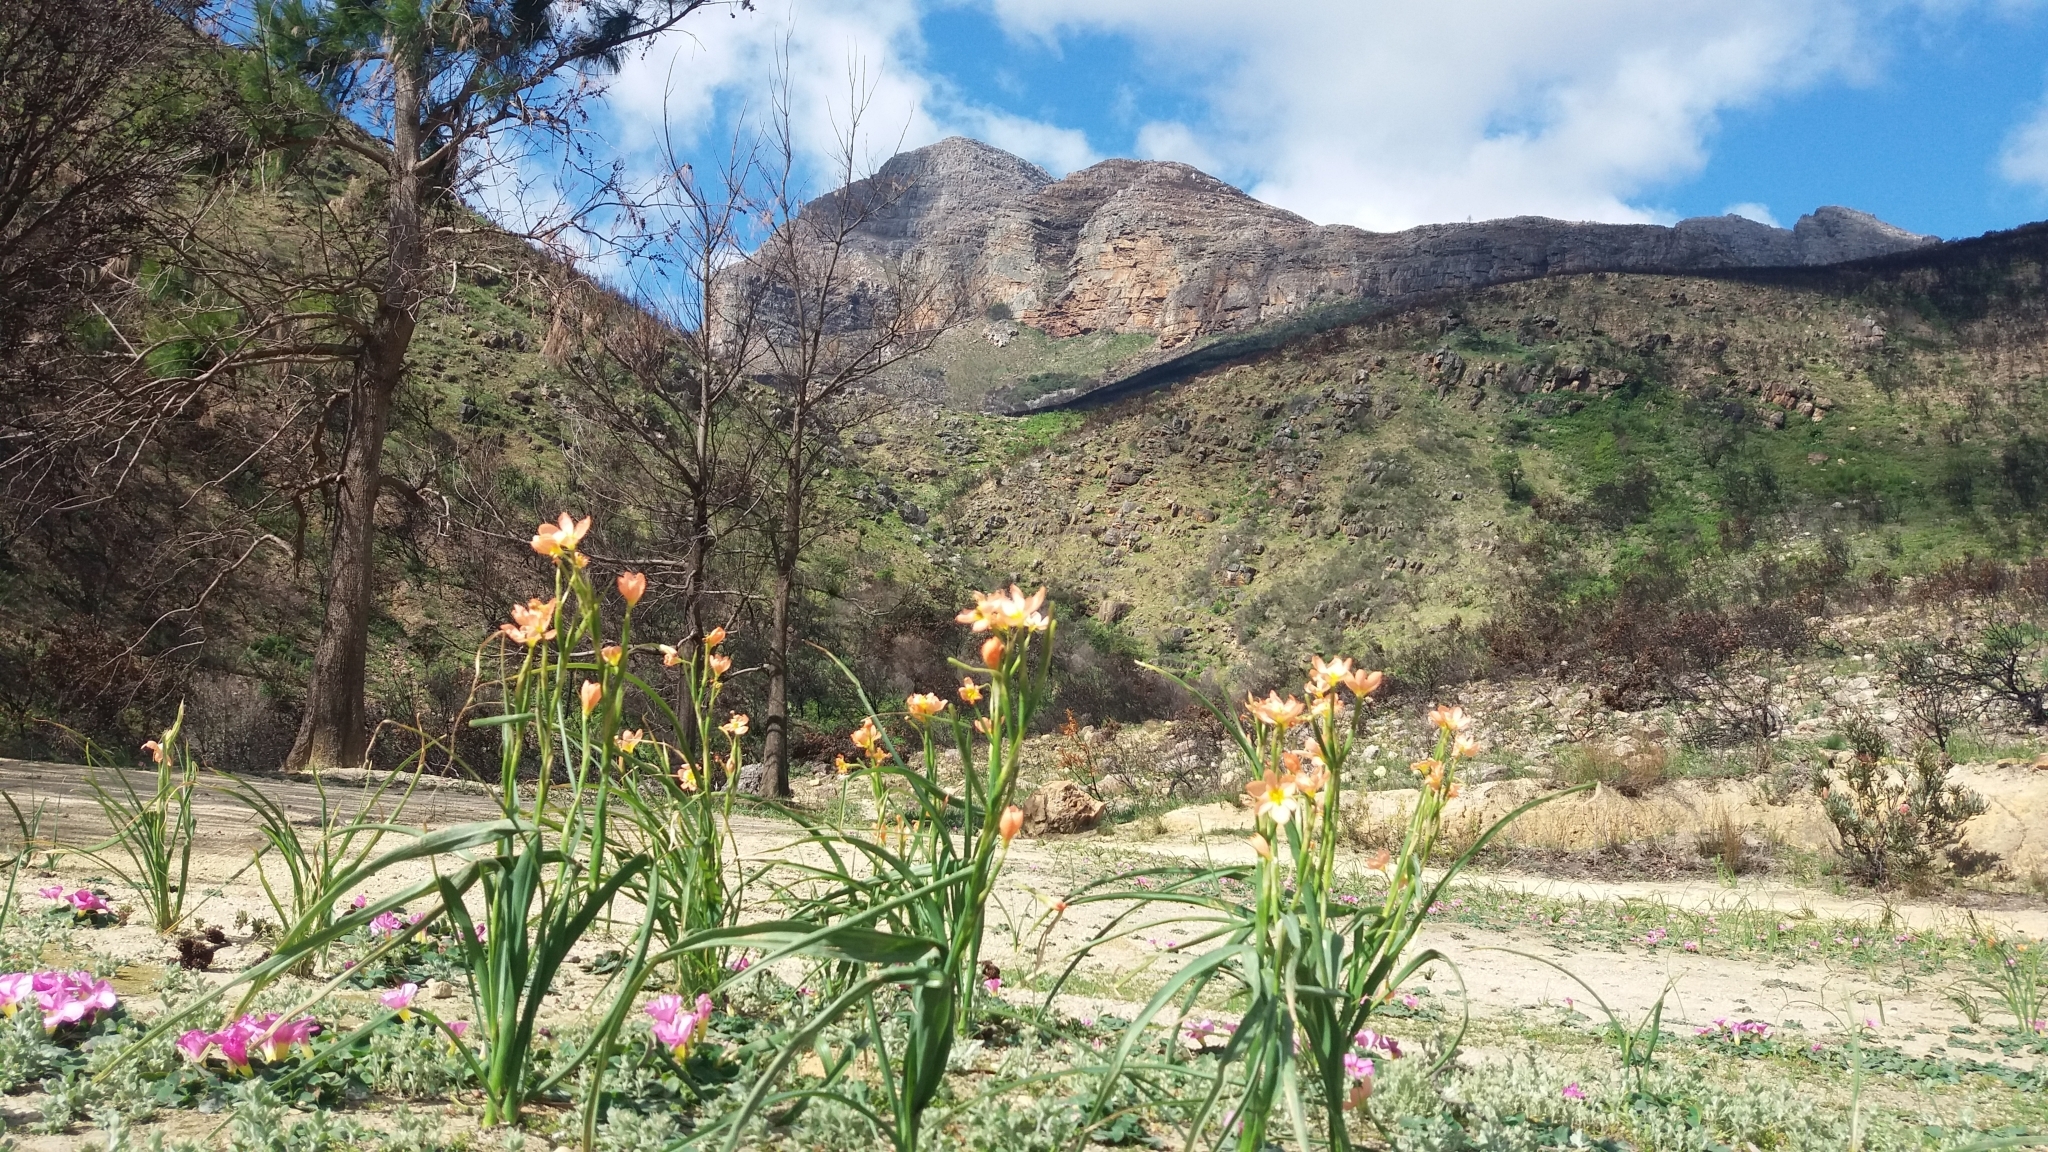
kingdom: Plantae
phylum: Tracheophyta
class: Liliopsida
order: Asparagales
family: Iridaceae
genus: Moraea
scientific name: Moraea miniata
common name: Two-leaf cape-tulip
